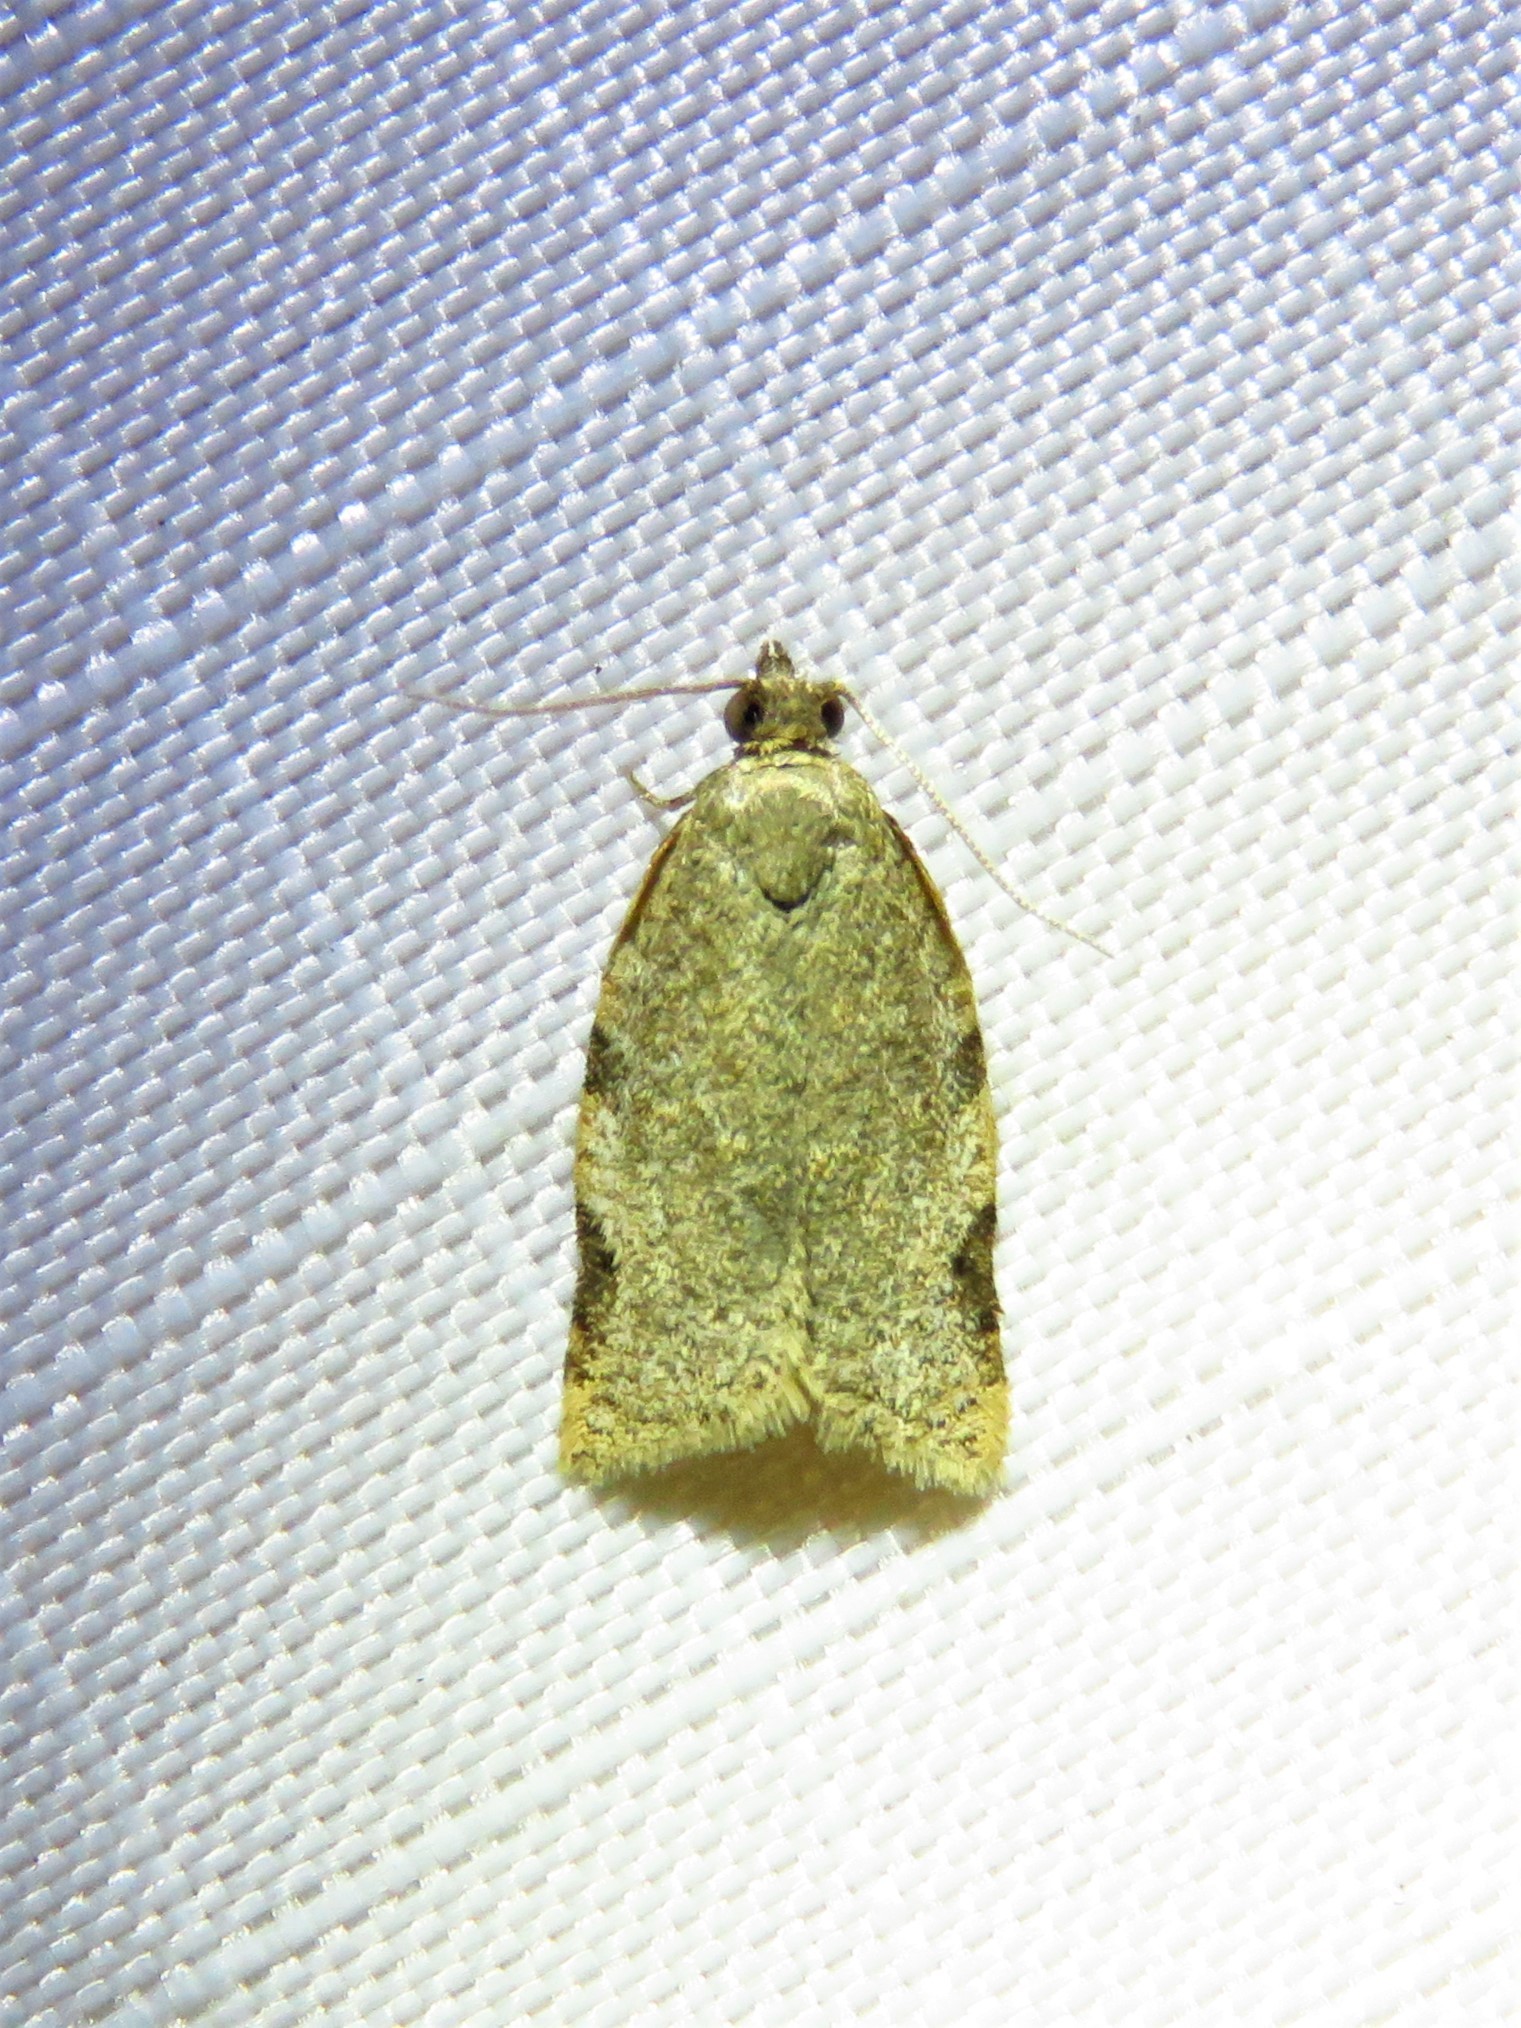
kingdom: Animalia
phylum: Arthropoda
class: Insecta
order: Lepidoptera
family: Tortricidae
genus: Clepsis
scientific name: Clepsis virescana
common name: Greenish apple moth
